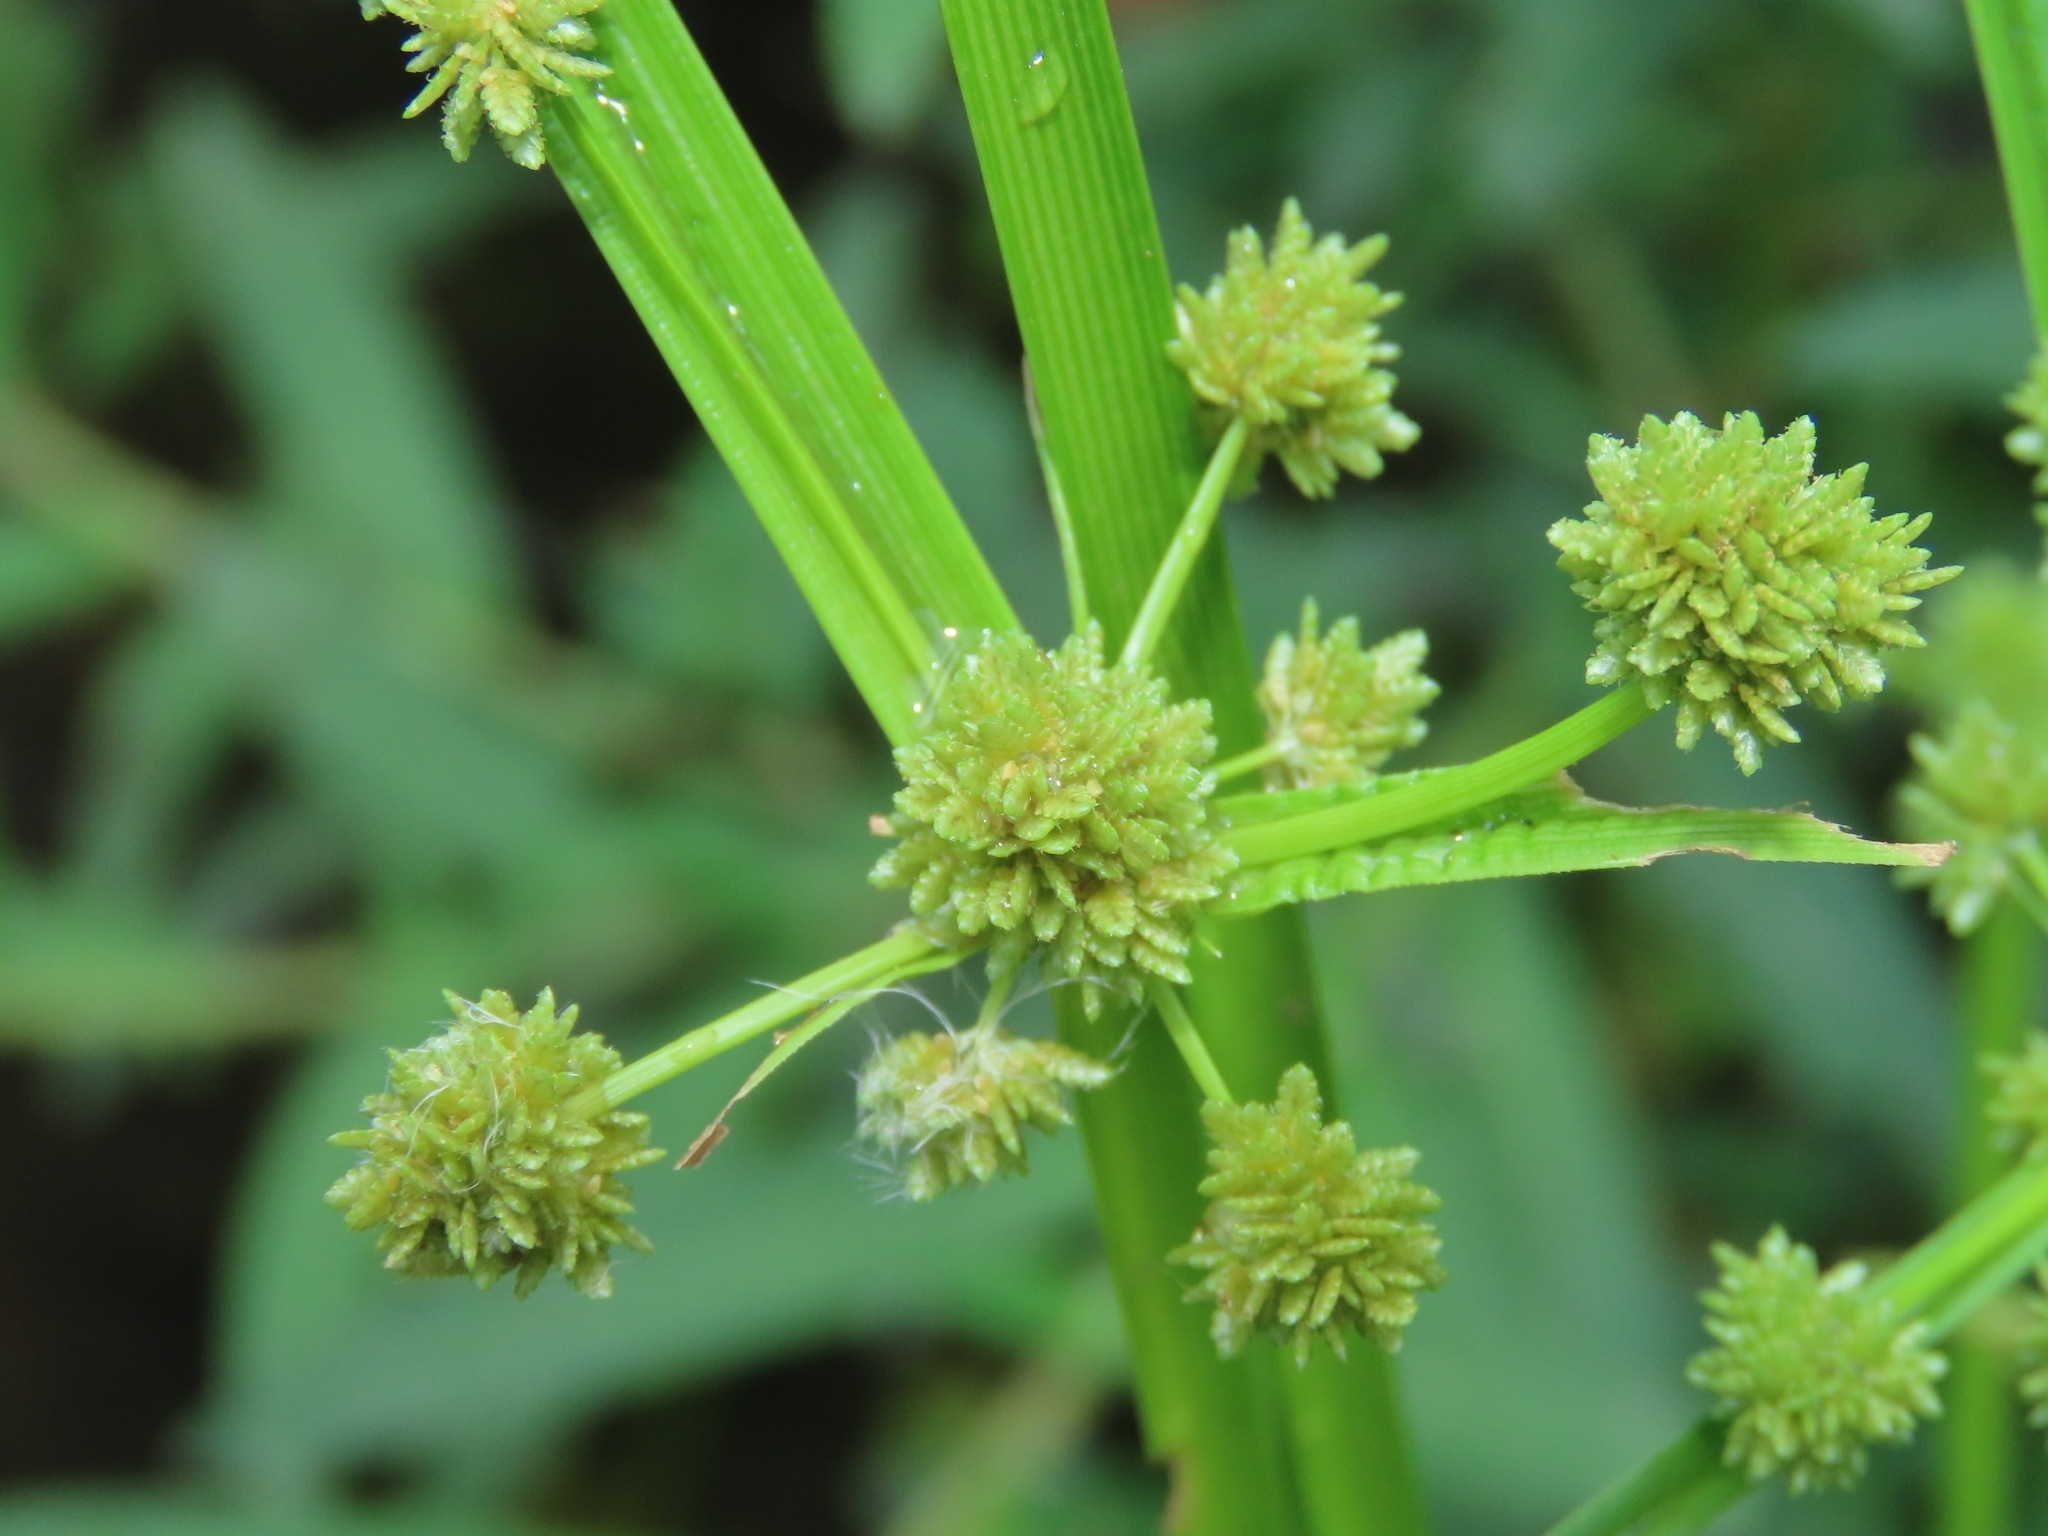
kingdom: Plantae
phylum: Tracheophyta
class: Liliopsida
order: Poales
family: Cyperaceae
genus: Cyperus
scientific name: Cyperus difformis
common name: Variable flatsedge
